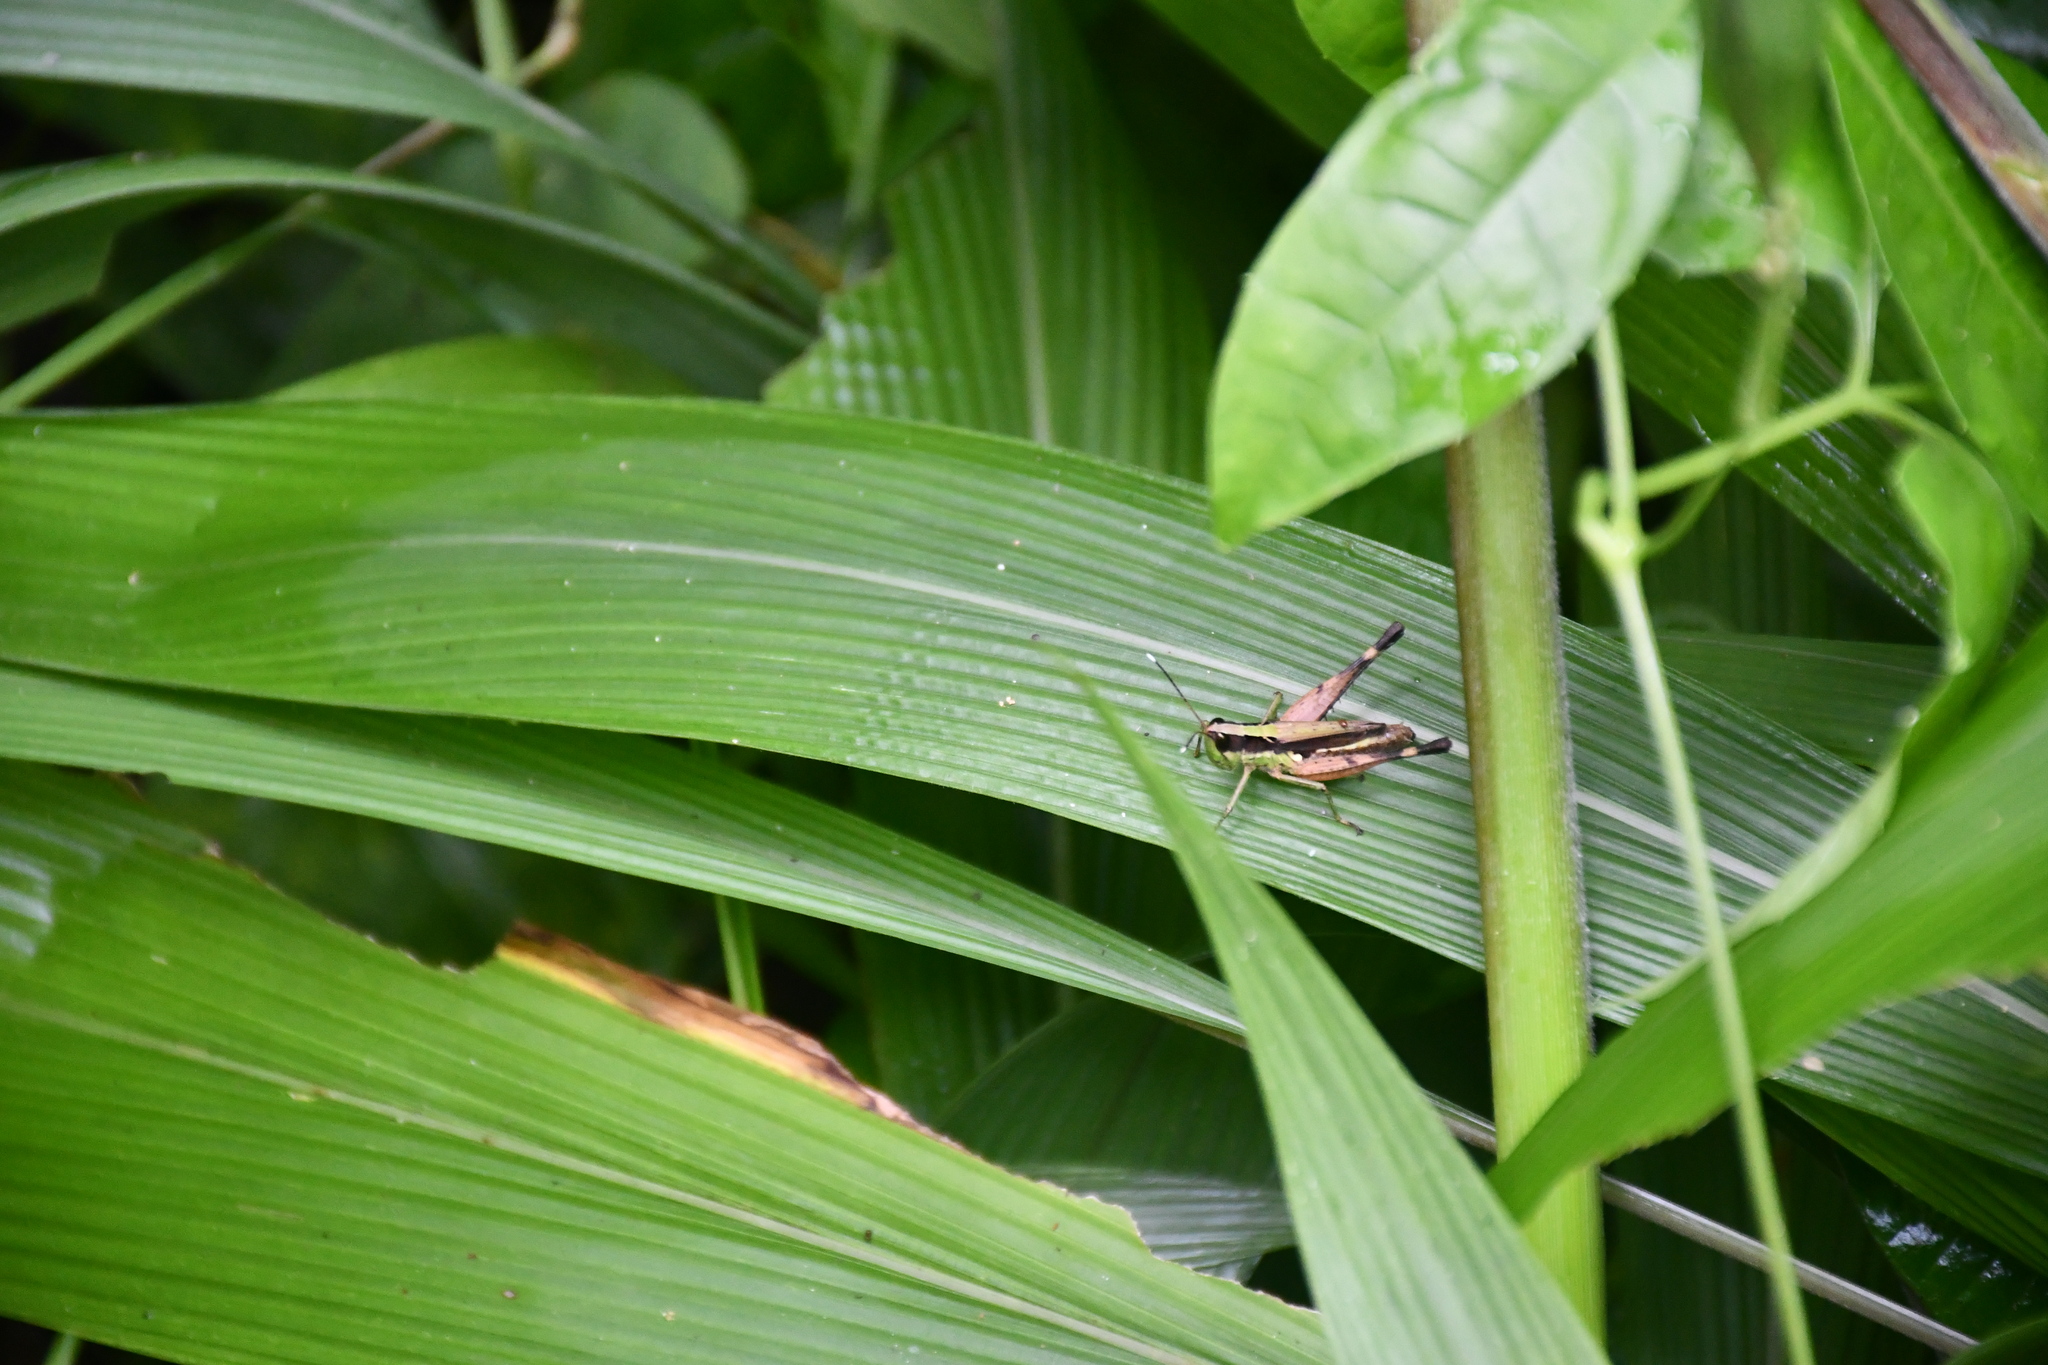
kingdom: Animalia
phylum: Arthropoda
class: Insecta
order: Orthoptera
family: Acrididae
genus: Compsacris
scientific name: Compsacris pulcher
